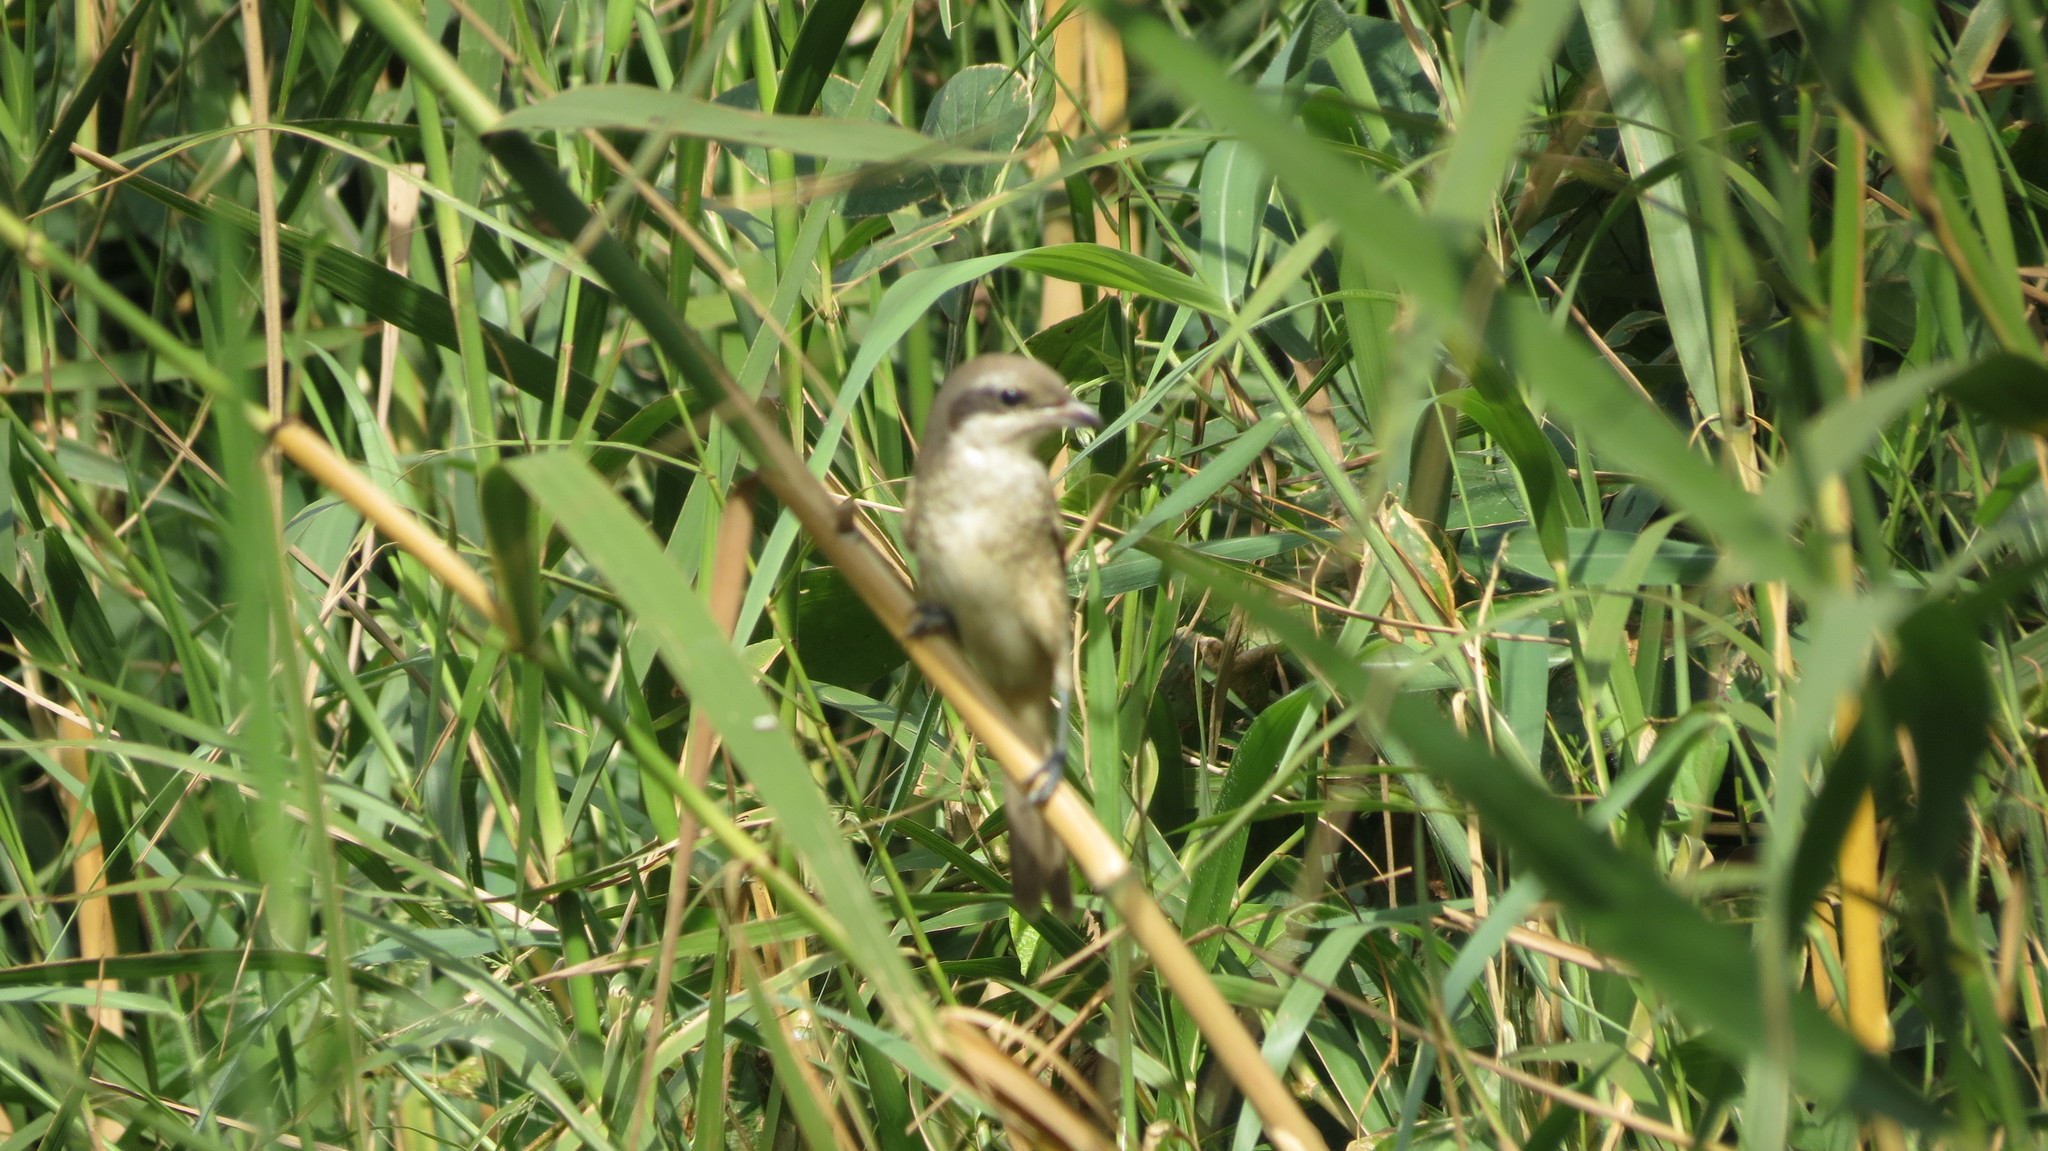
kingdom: Animalia
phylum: Chordata
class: Aves
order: Passeriformes
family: Laniidae
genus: Lanius
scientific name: Lanius cristatus
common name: Brown shrike
